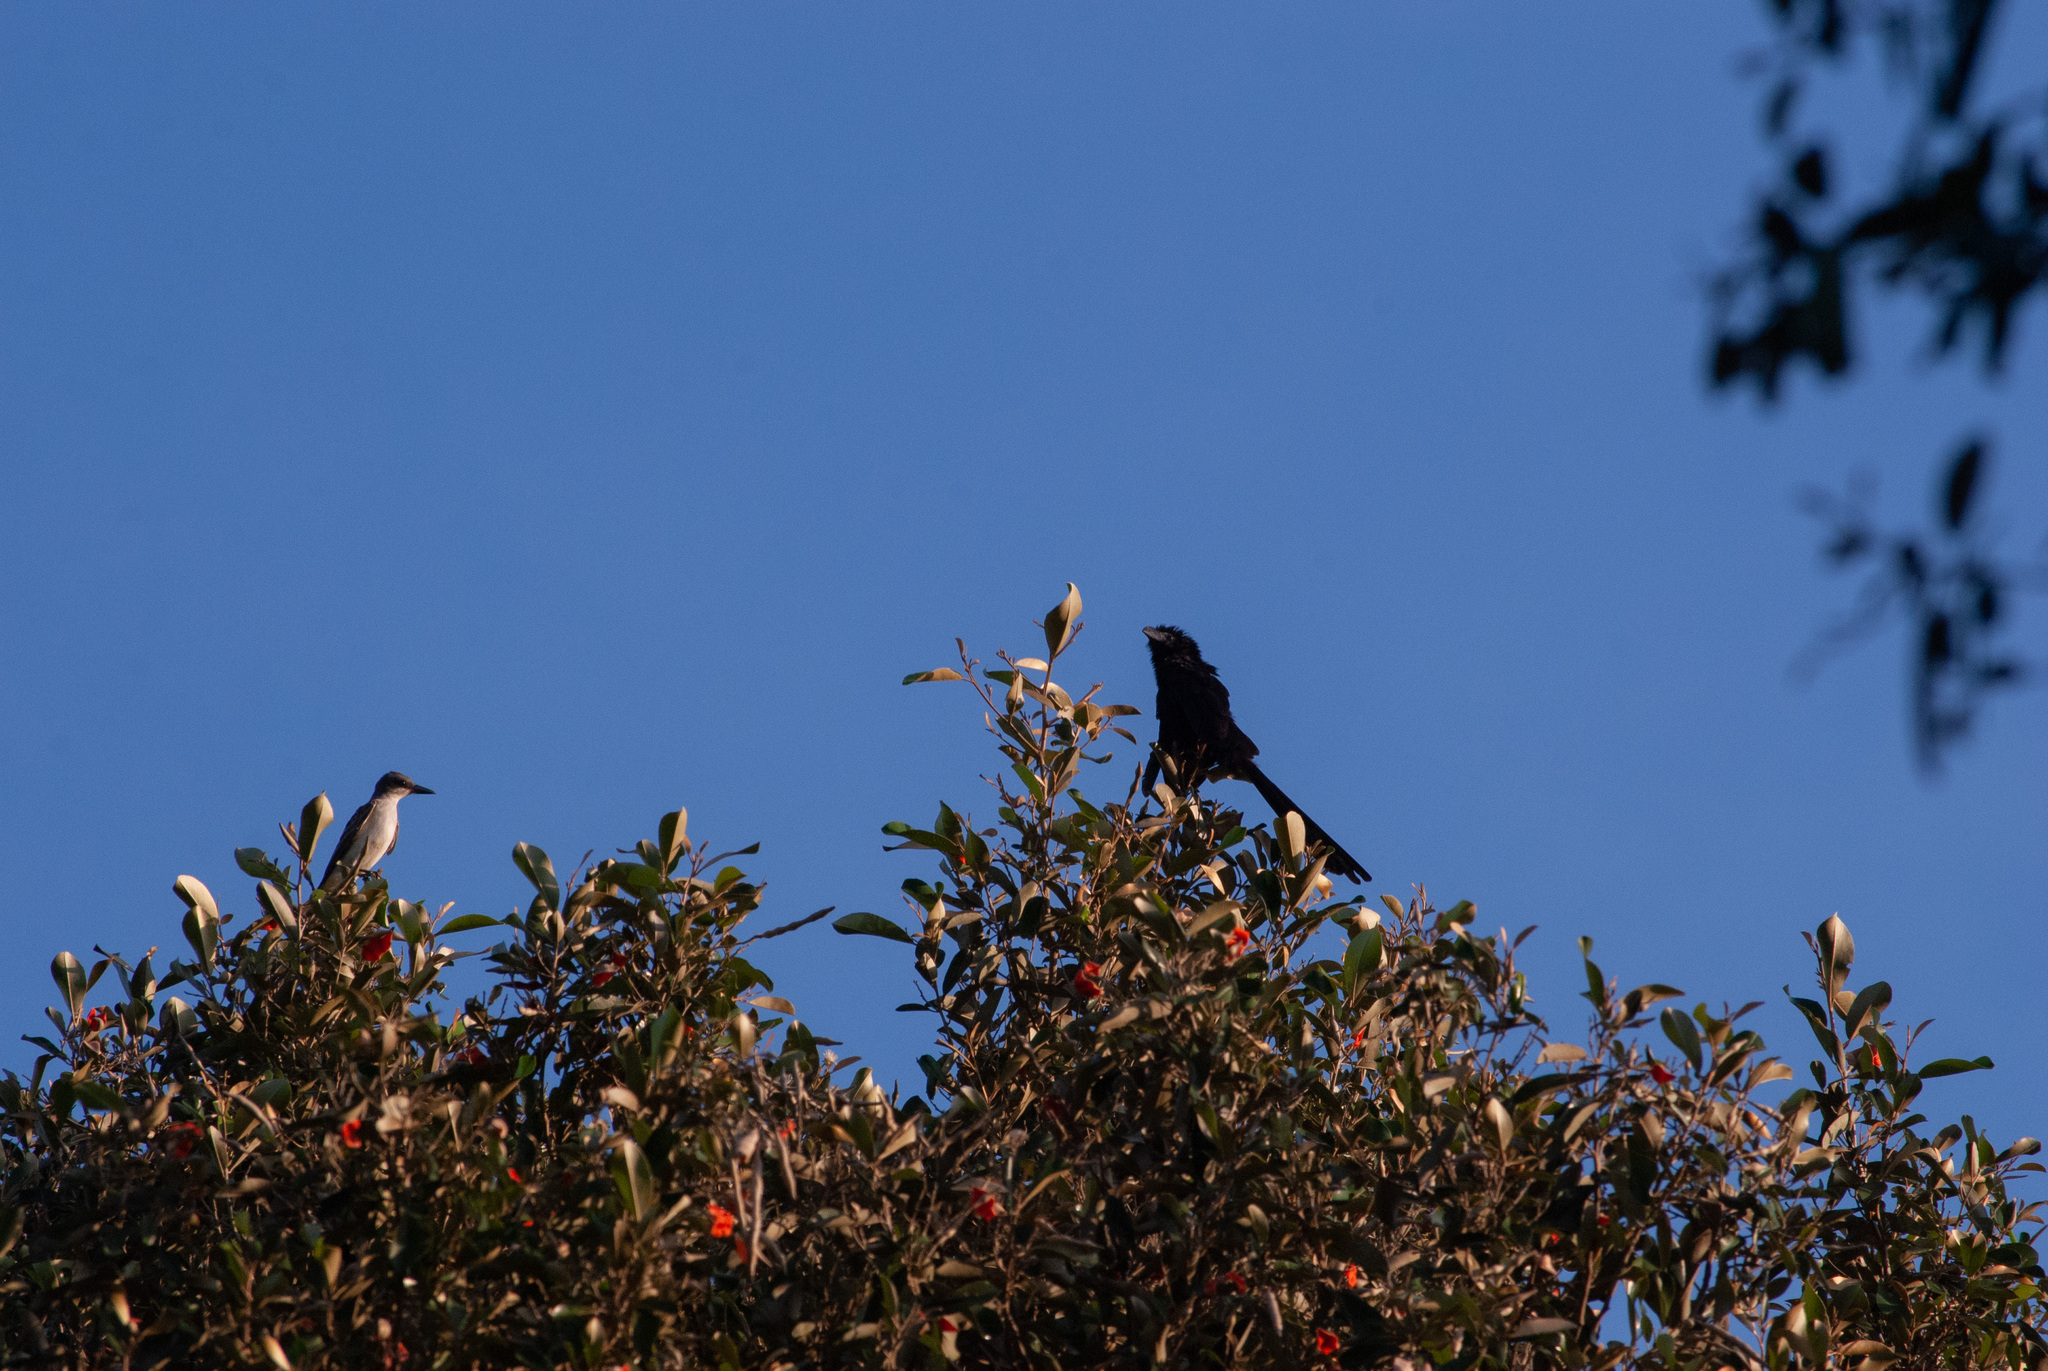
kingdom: Animalia
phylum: Chordata
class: Aves
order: Cuculiformes
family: Cuculidae
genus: Crotophaga
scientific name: Crotophaga ani
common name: Smooth-billed ani
